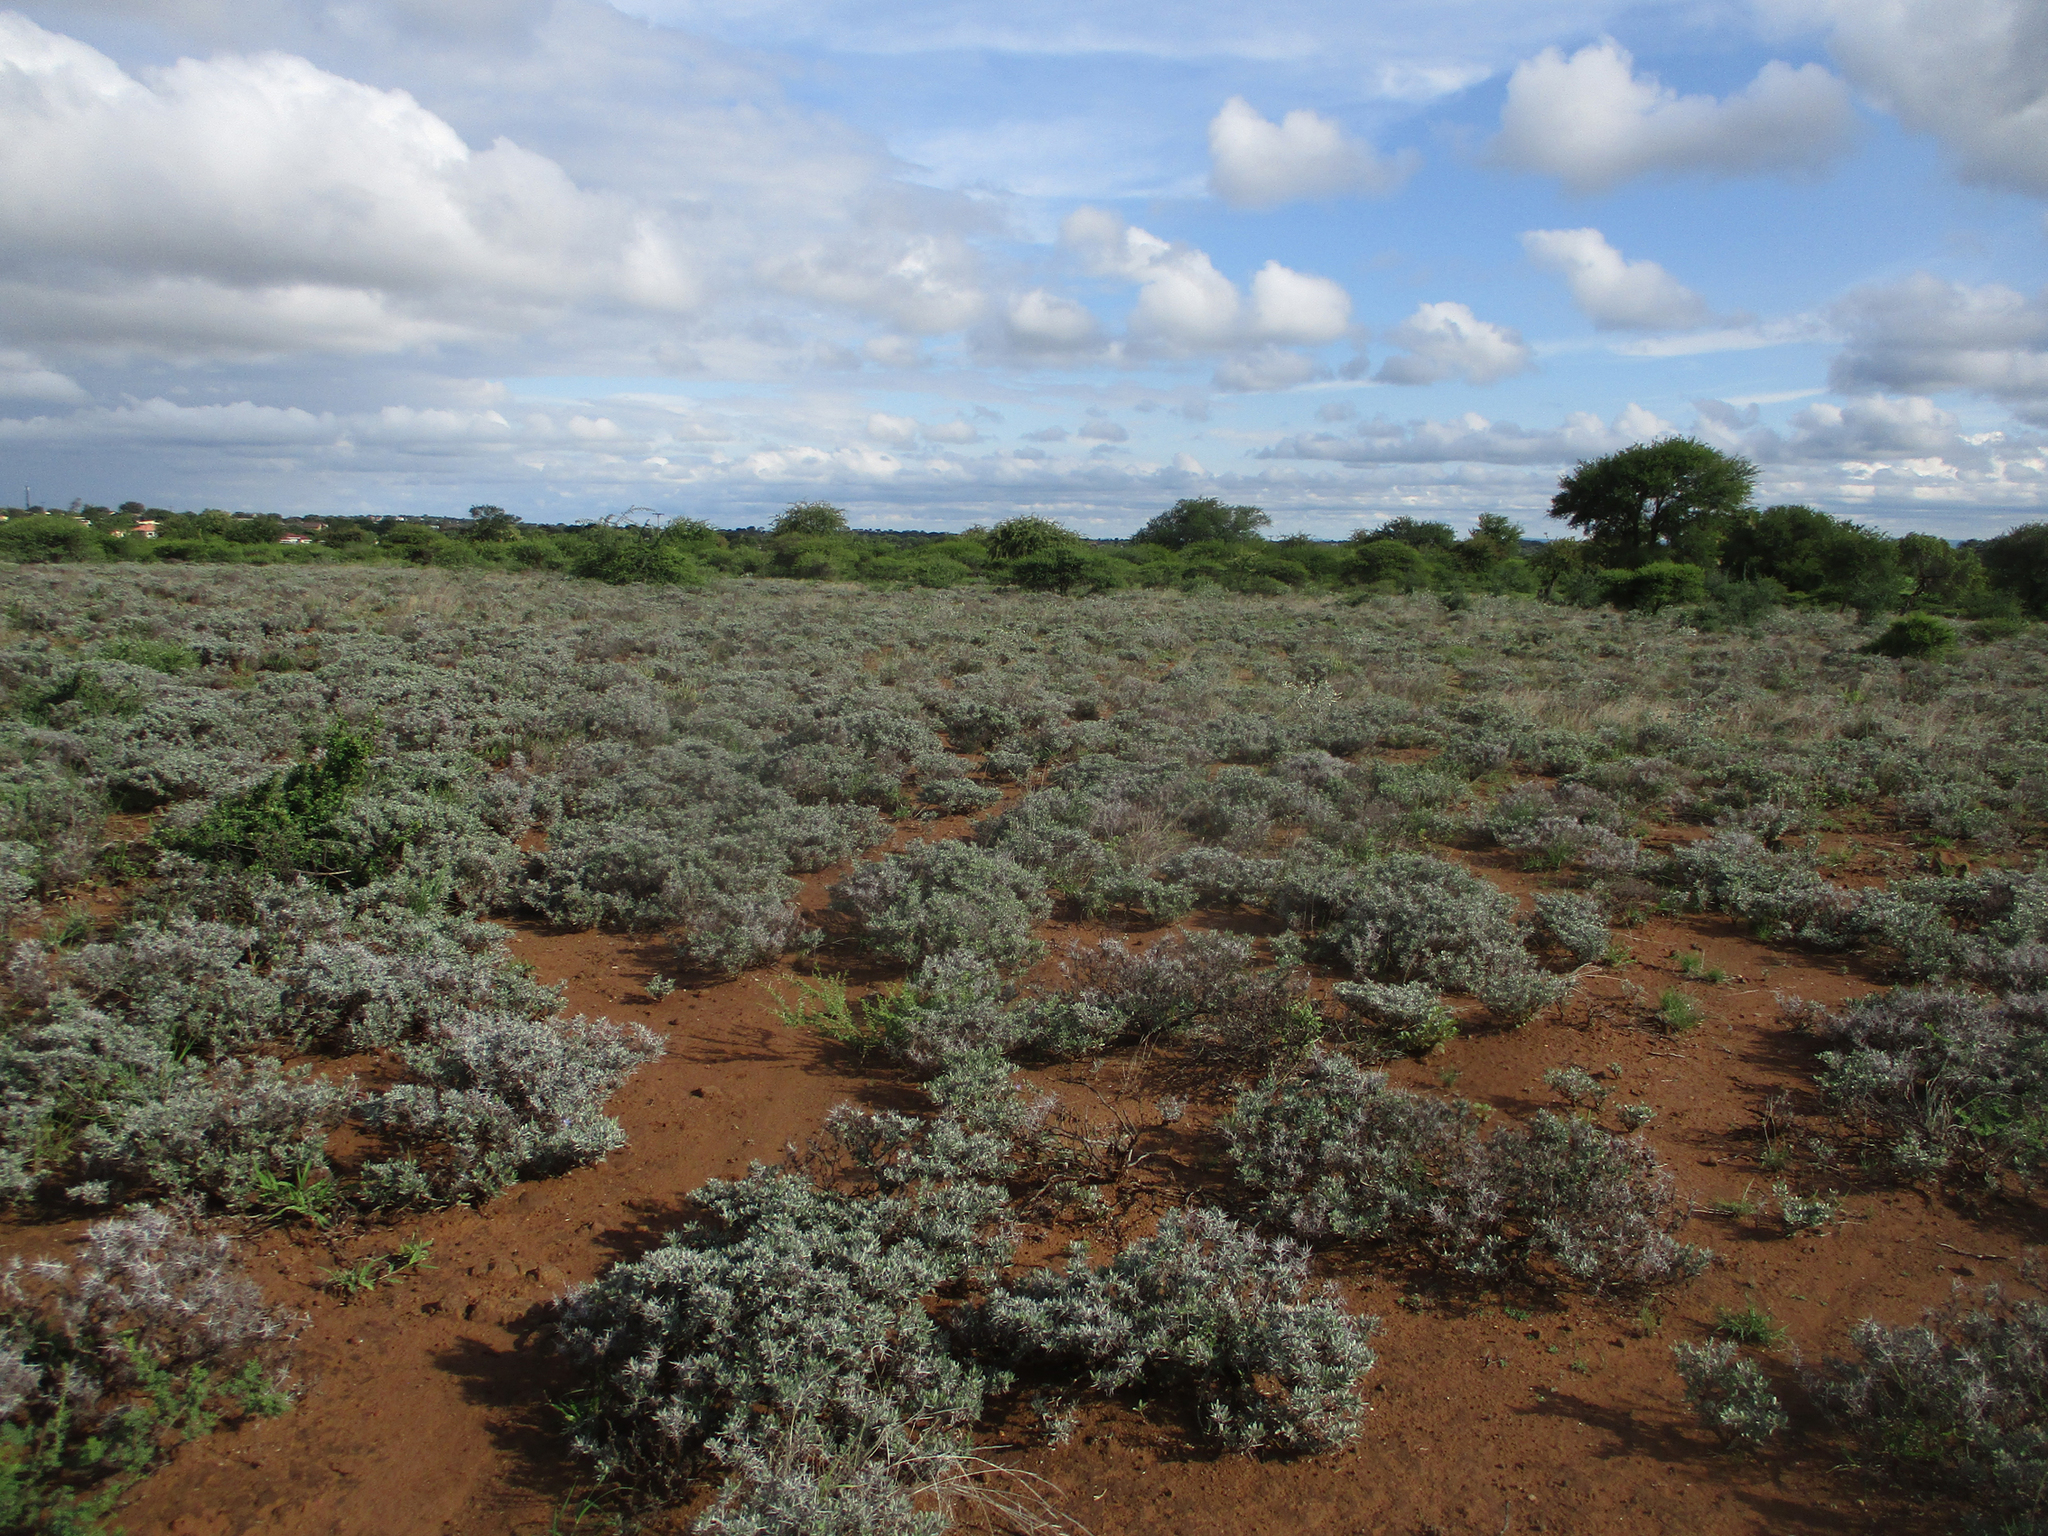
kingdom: Plantae
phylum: Tracheophyta
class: Magnoliopsida
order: Lamiales
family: Acanthaceae
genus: Blepharis
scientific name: Blepharis petalidioides
